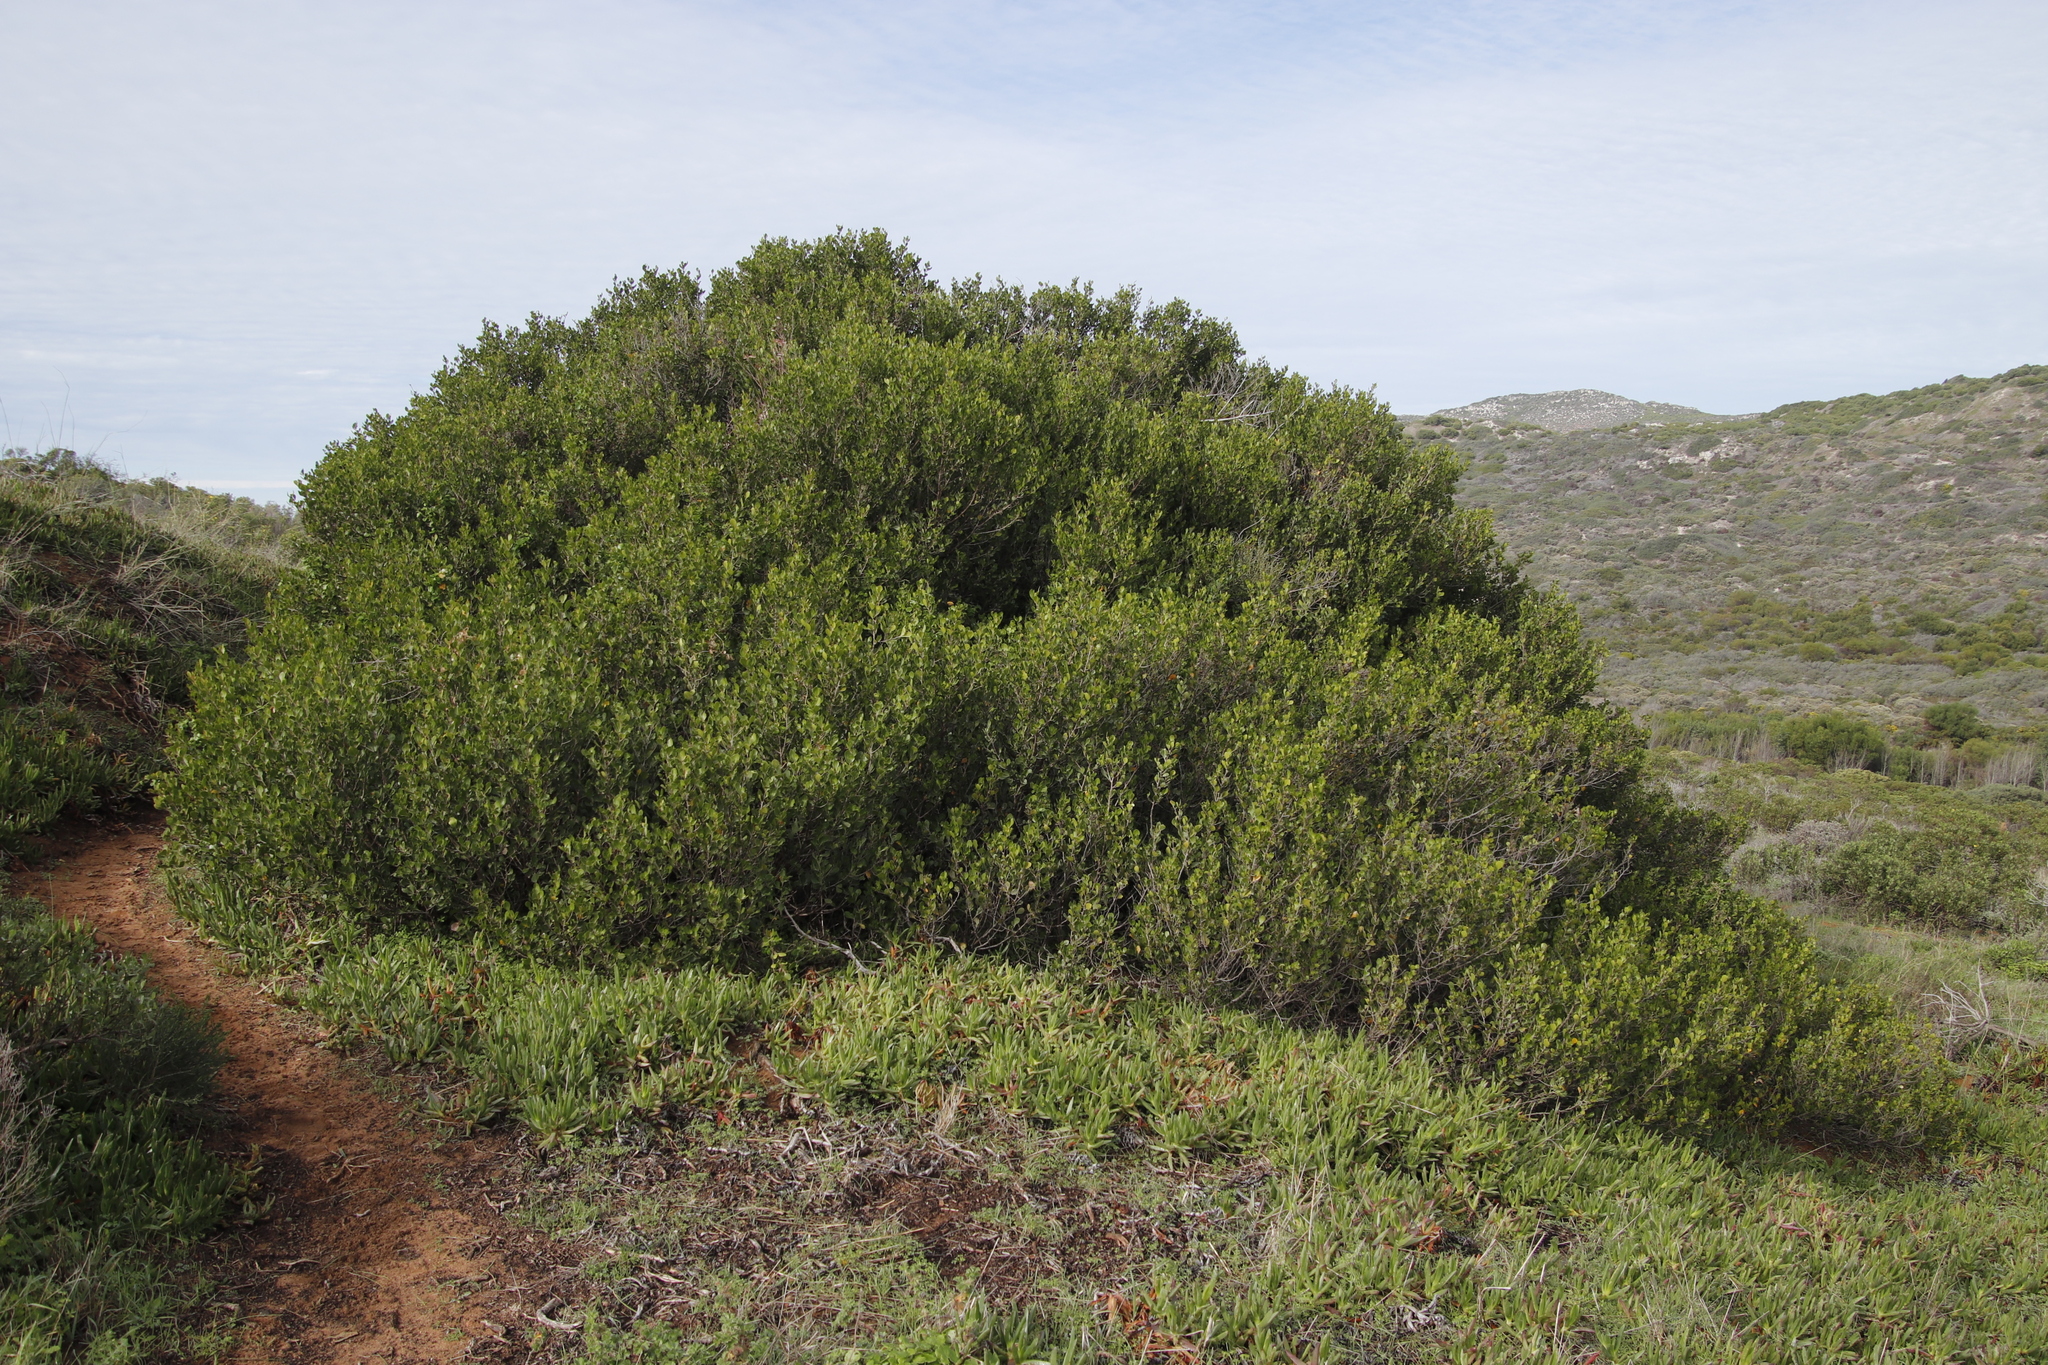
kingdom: Plantae
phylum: Tracheophyta
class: Magnoliopsida
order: Sapindales
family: Anacardiaceae
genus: Searsia
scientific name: Searsia lucida
